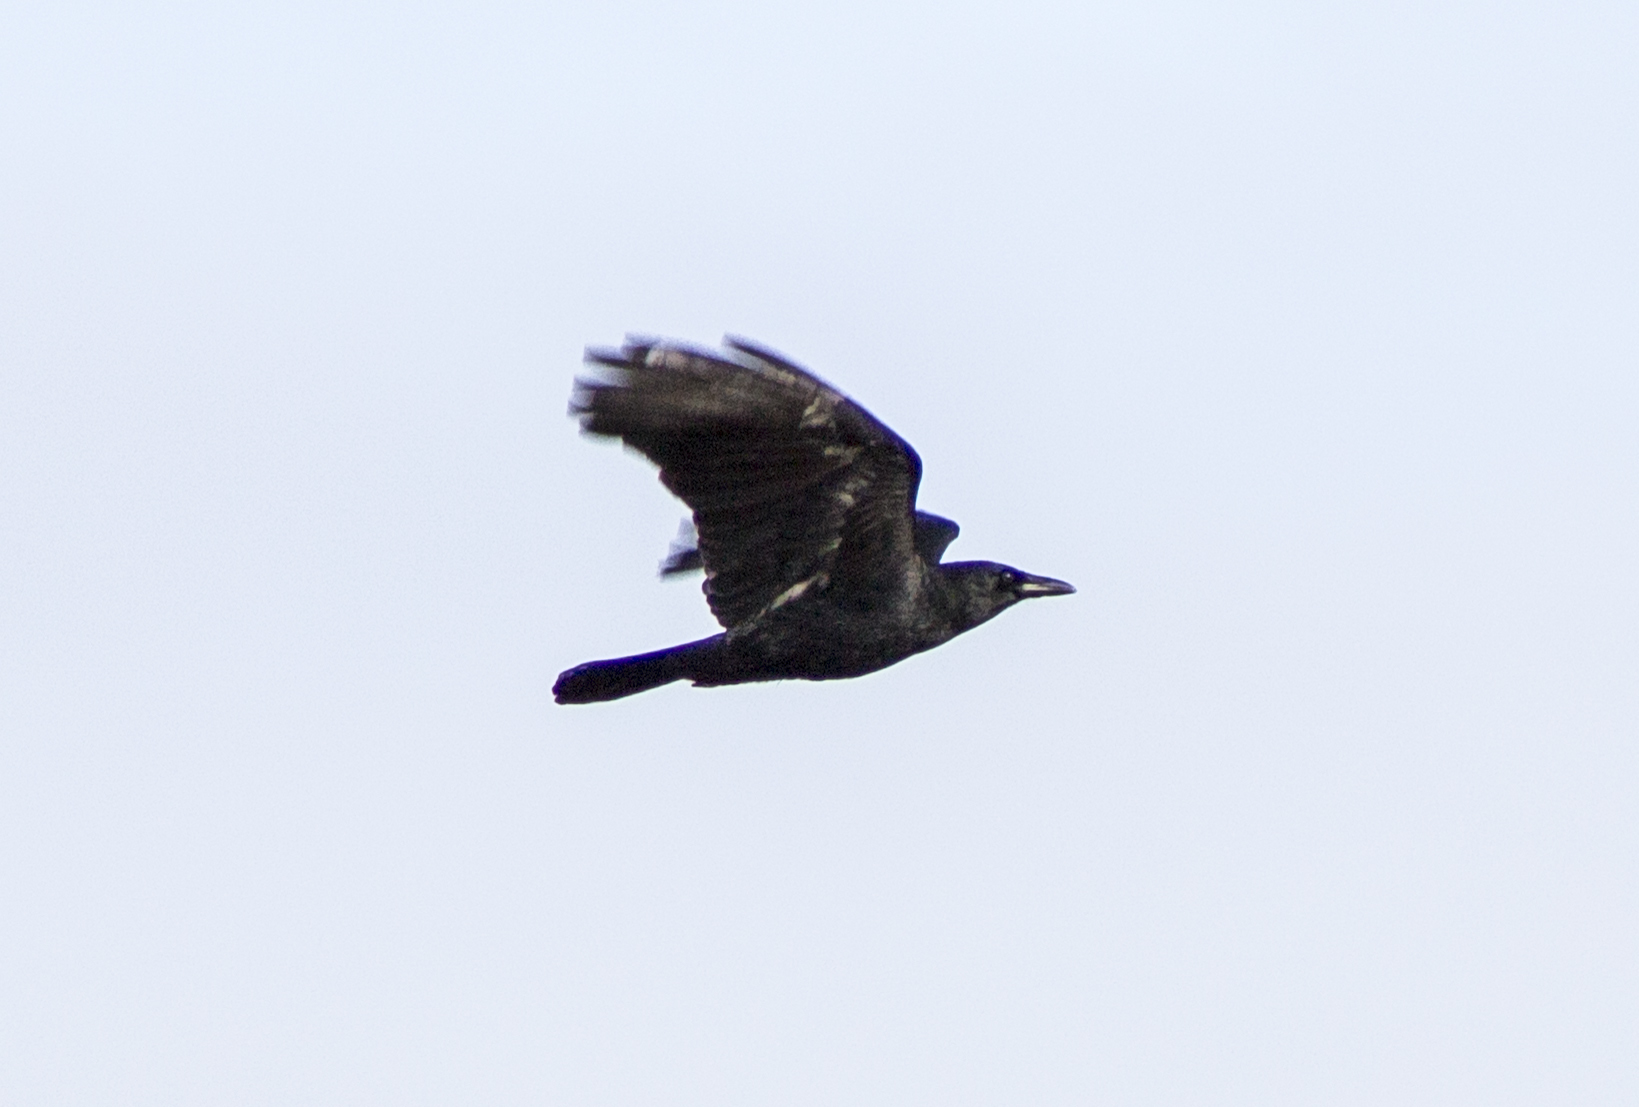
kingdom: Animalia
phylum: Chordata
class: Aves
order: Passeriformes
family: Corvidae
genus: Corvus
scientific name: Corvus brachyrhynchos
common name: American crow
